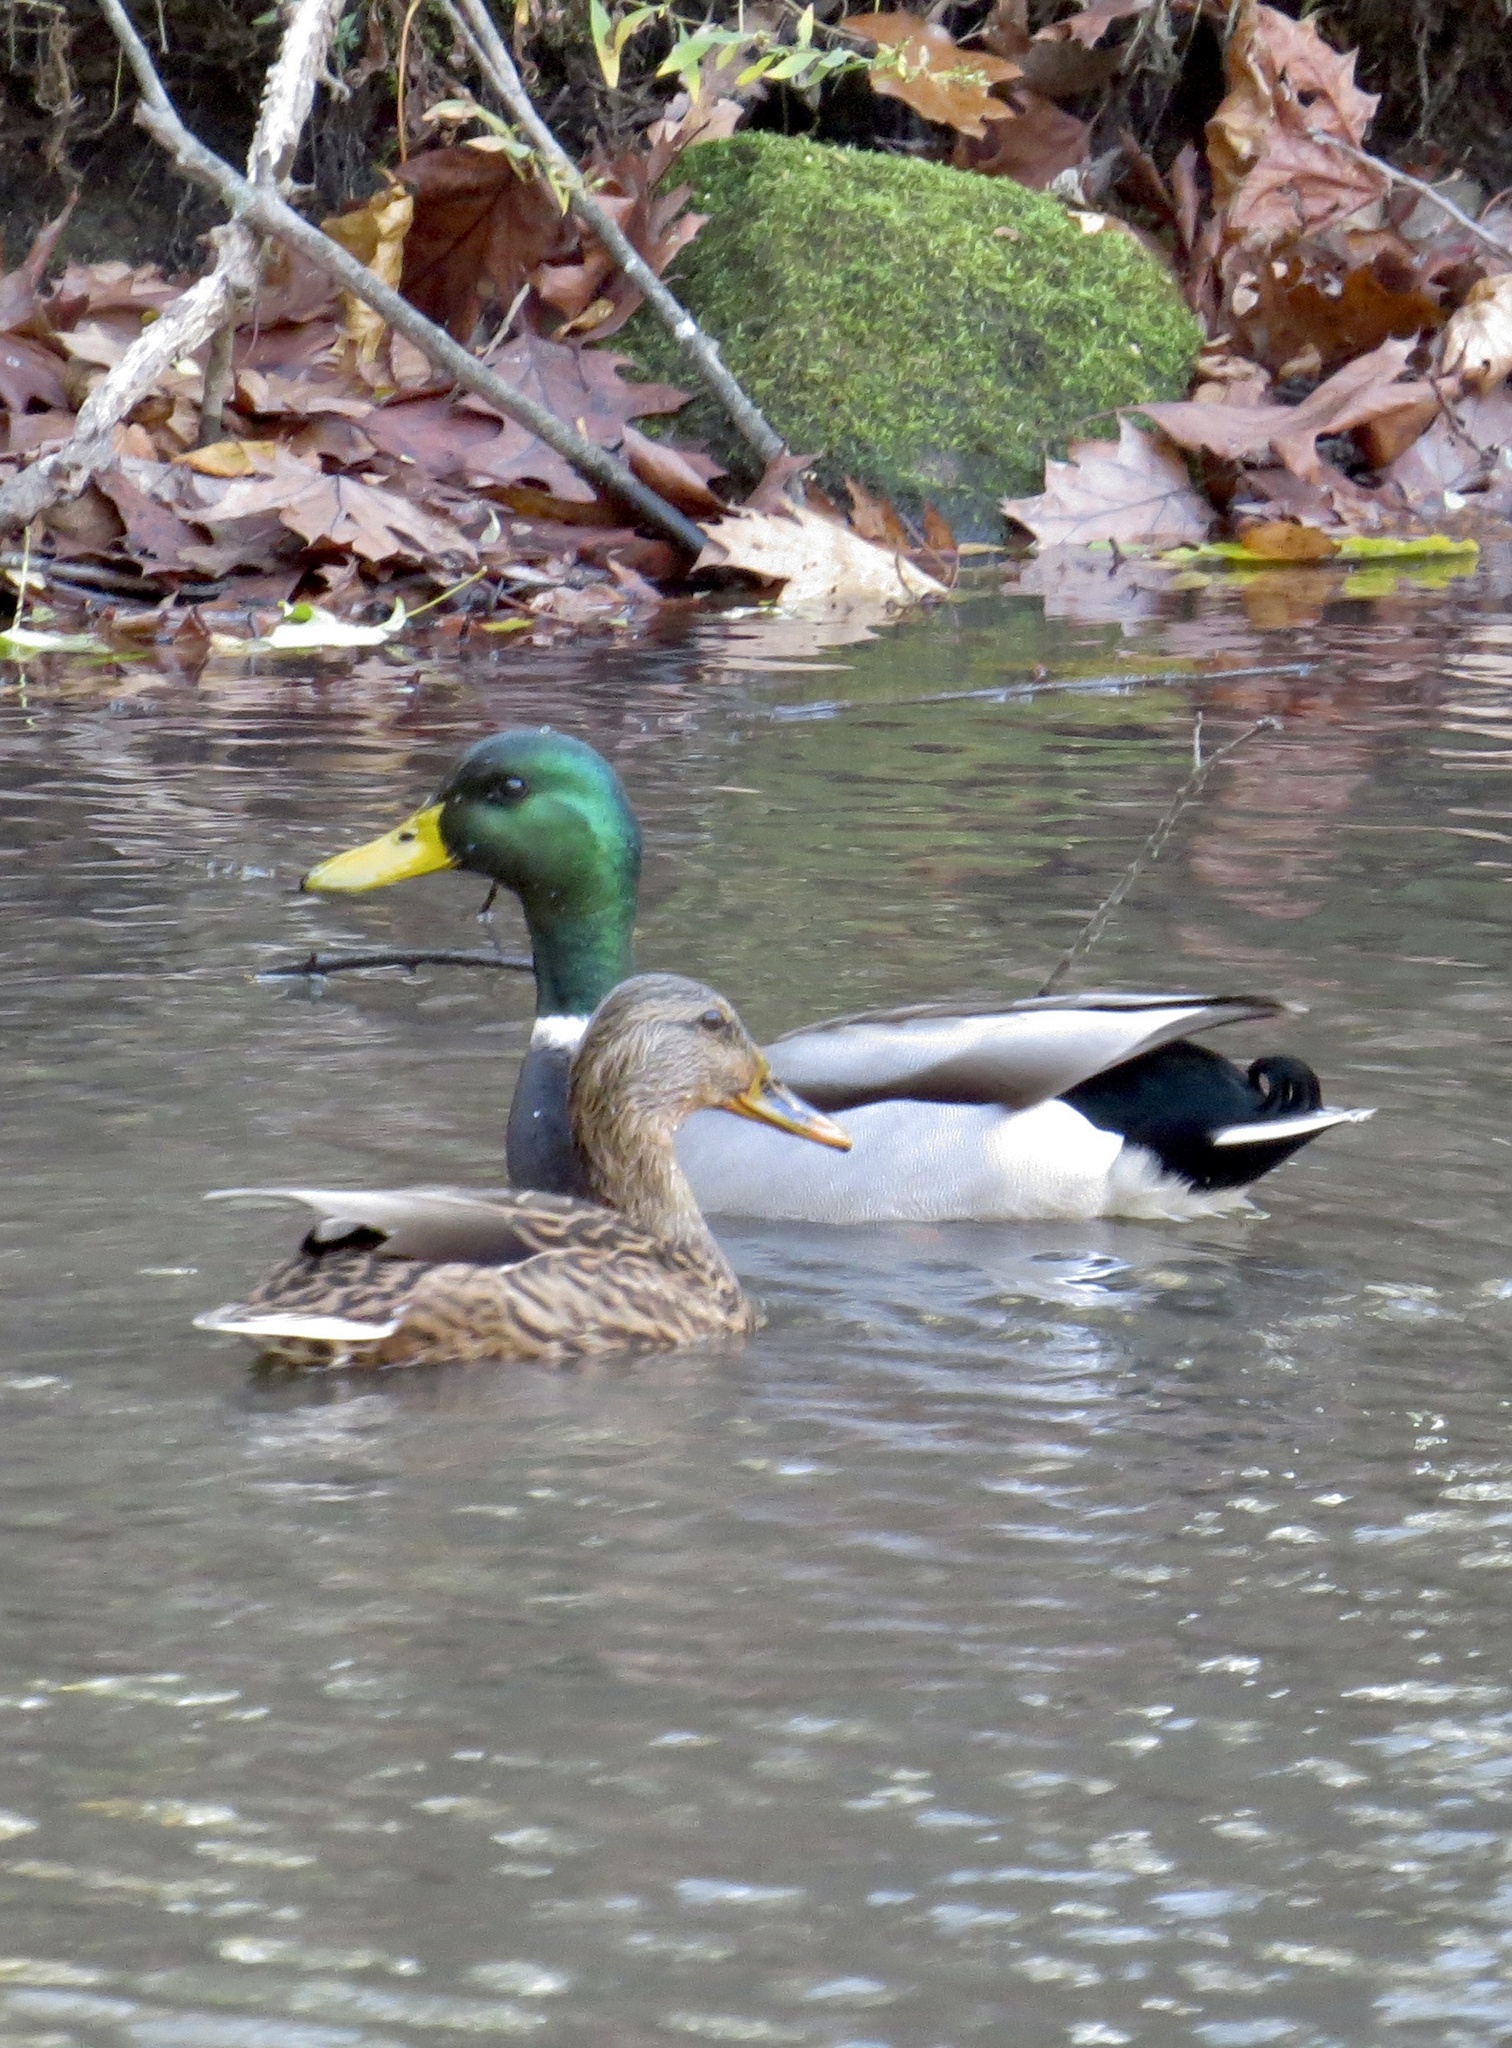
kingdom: Animalia
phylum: Chordata
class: Aves
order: Anseriformes
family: Anatidae
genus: Anas
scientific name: Anas platyrhynchos
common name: Mallard
